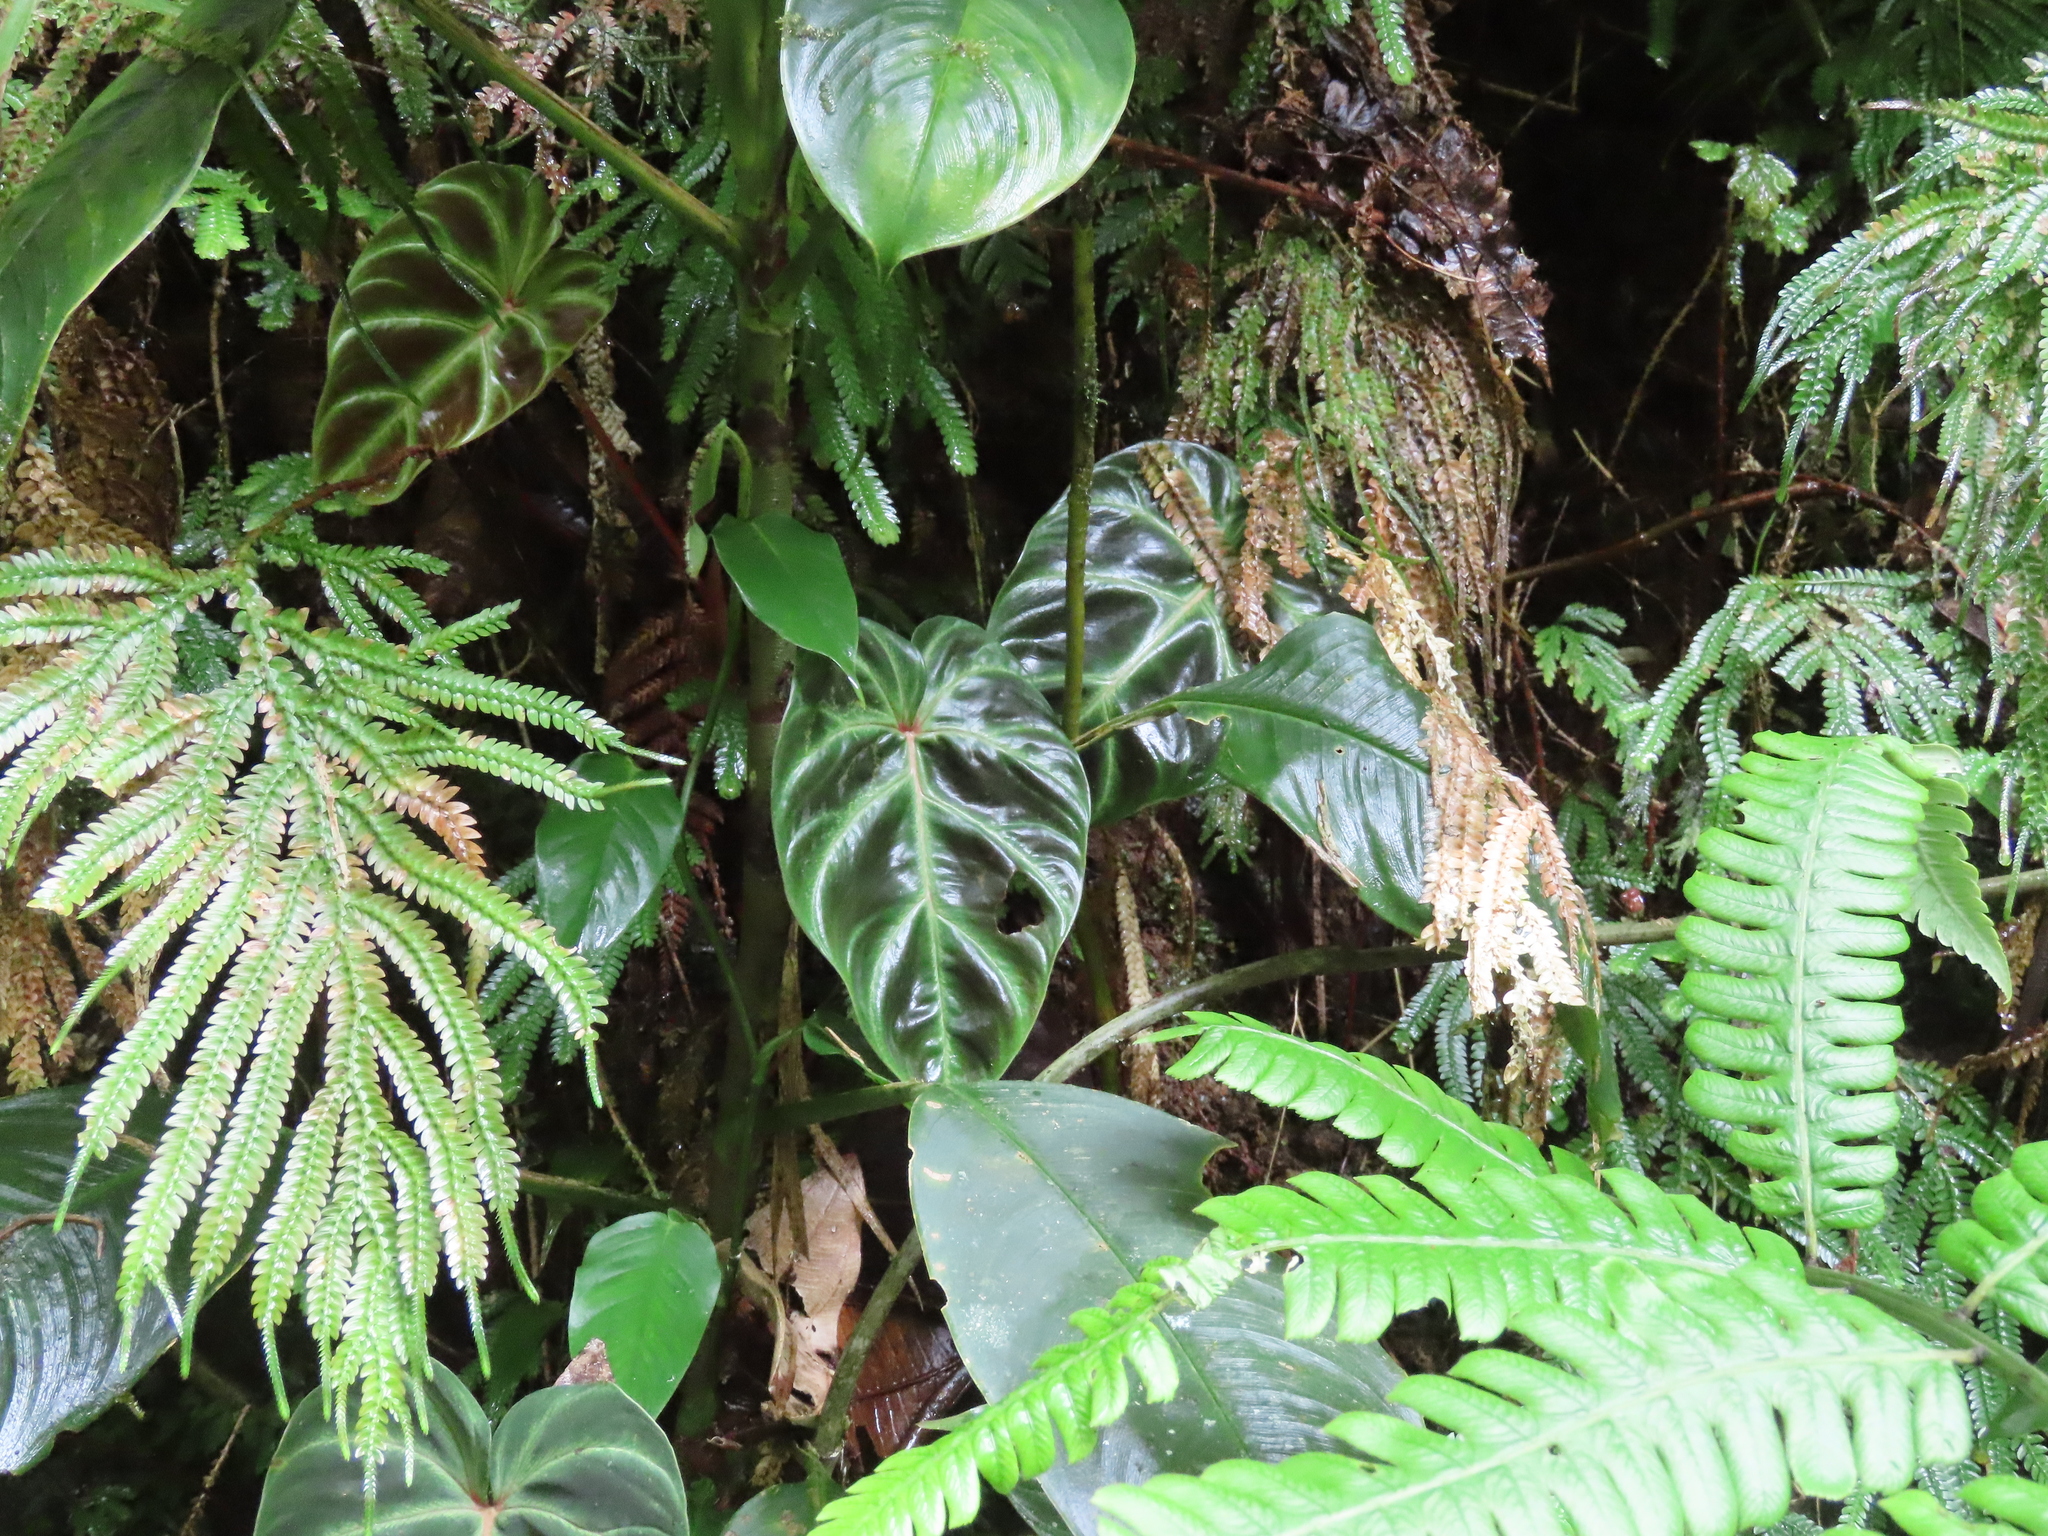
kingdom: Plantae
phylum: Tracheophyta
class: Liliopsida
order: Alismatales
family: Araceae
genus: Philodendron
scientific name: Philodendron verrucosum
